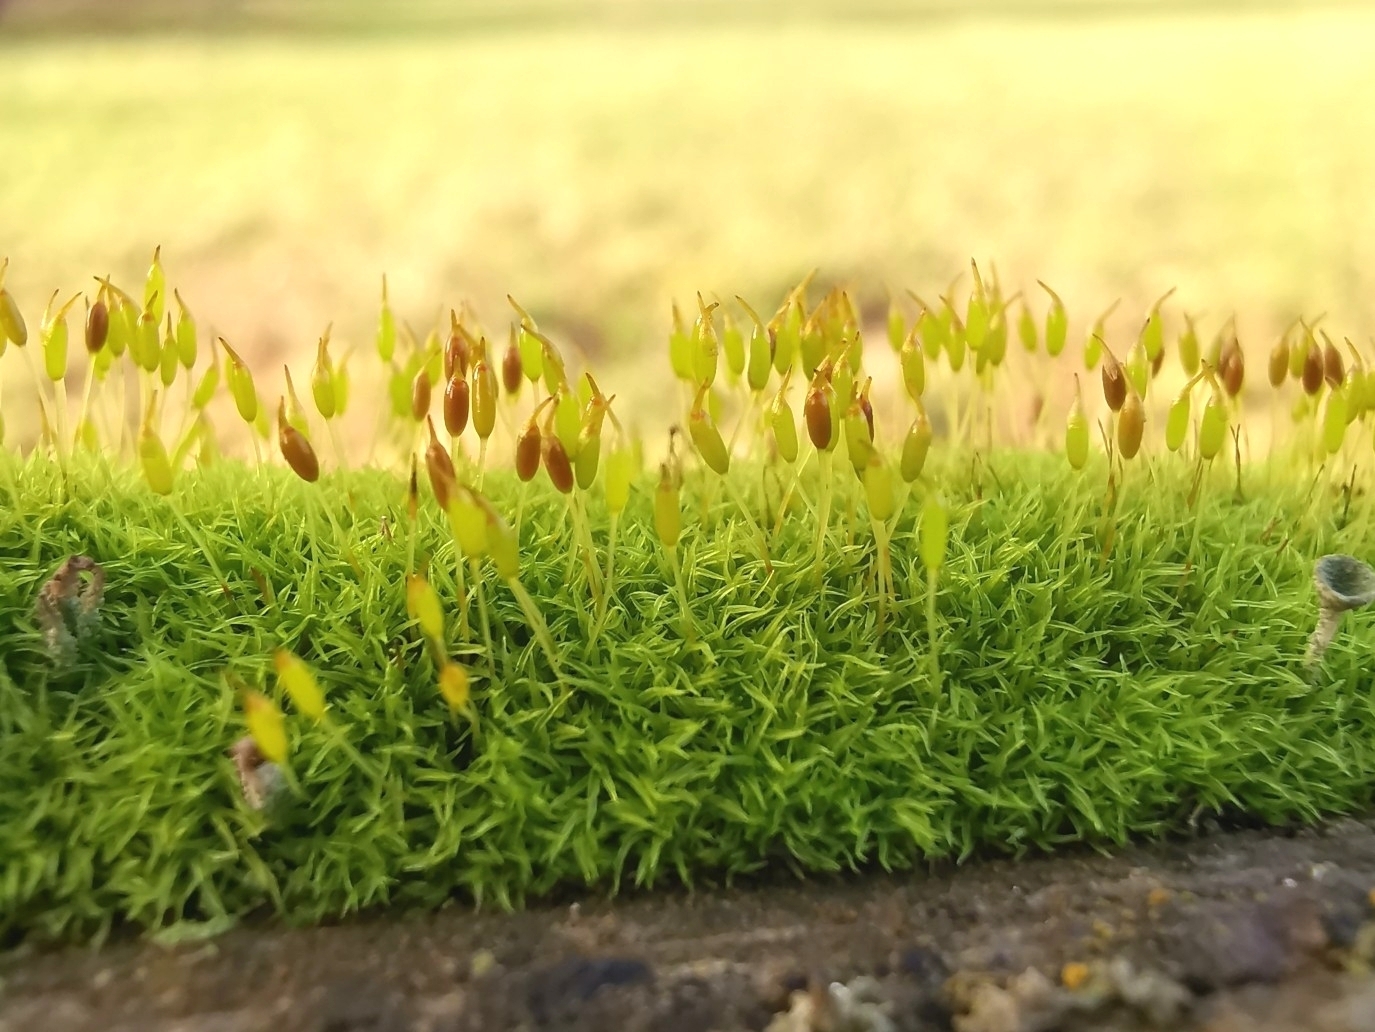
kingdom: Plantae
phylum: Bryophyta
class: Bryopsida
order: Dicranales
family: Rhabdoweisiaceae
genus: Dicranoweisia
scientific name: Dicranoweisia cirrata
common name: Common pincushion
